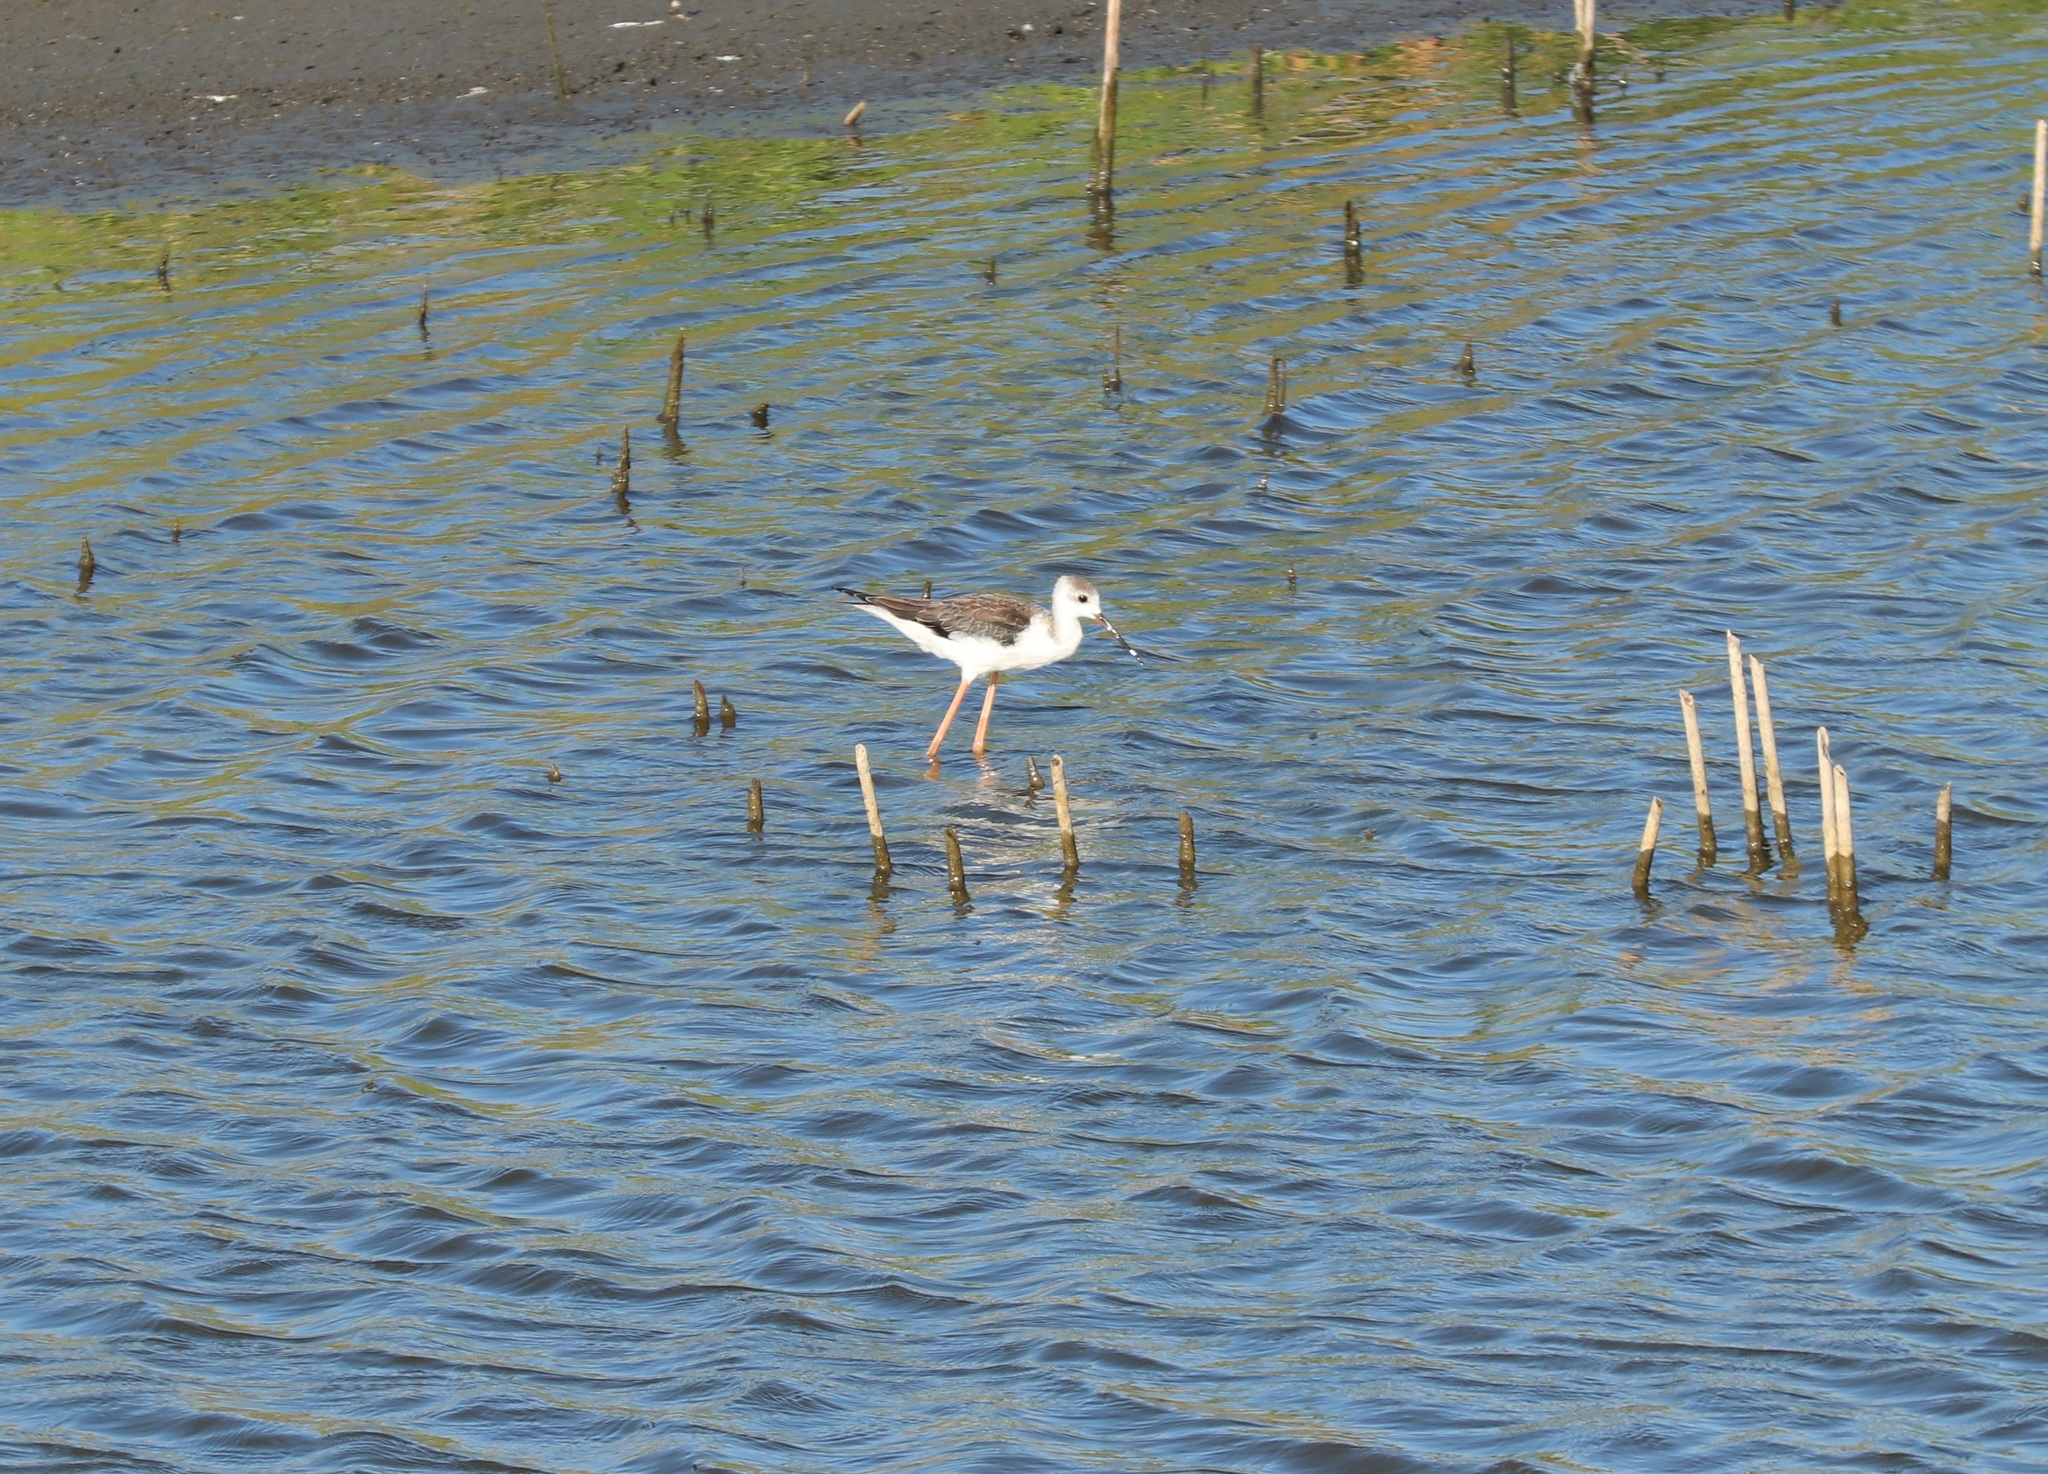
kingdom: Animalia
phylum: Chordata
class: Aves
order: Charadriiformes
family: Recurvirostridae
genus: Himantopus
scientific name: Himantopus himantopus
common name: Black-winged stilt
